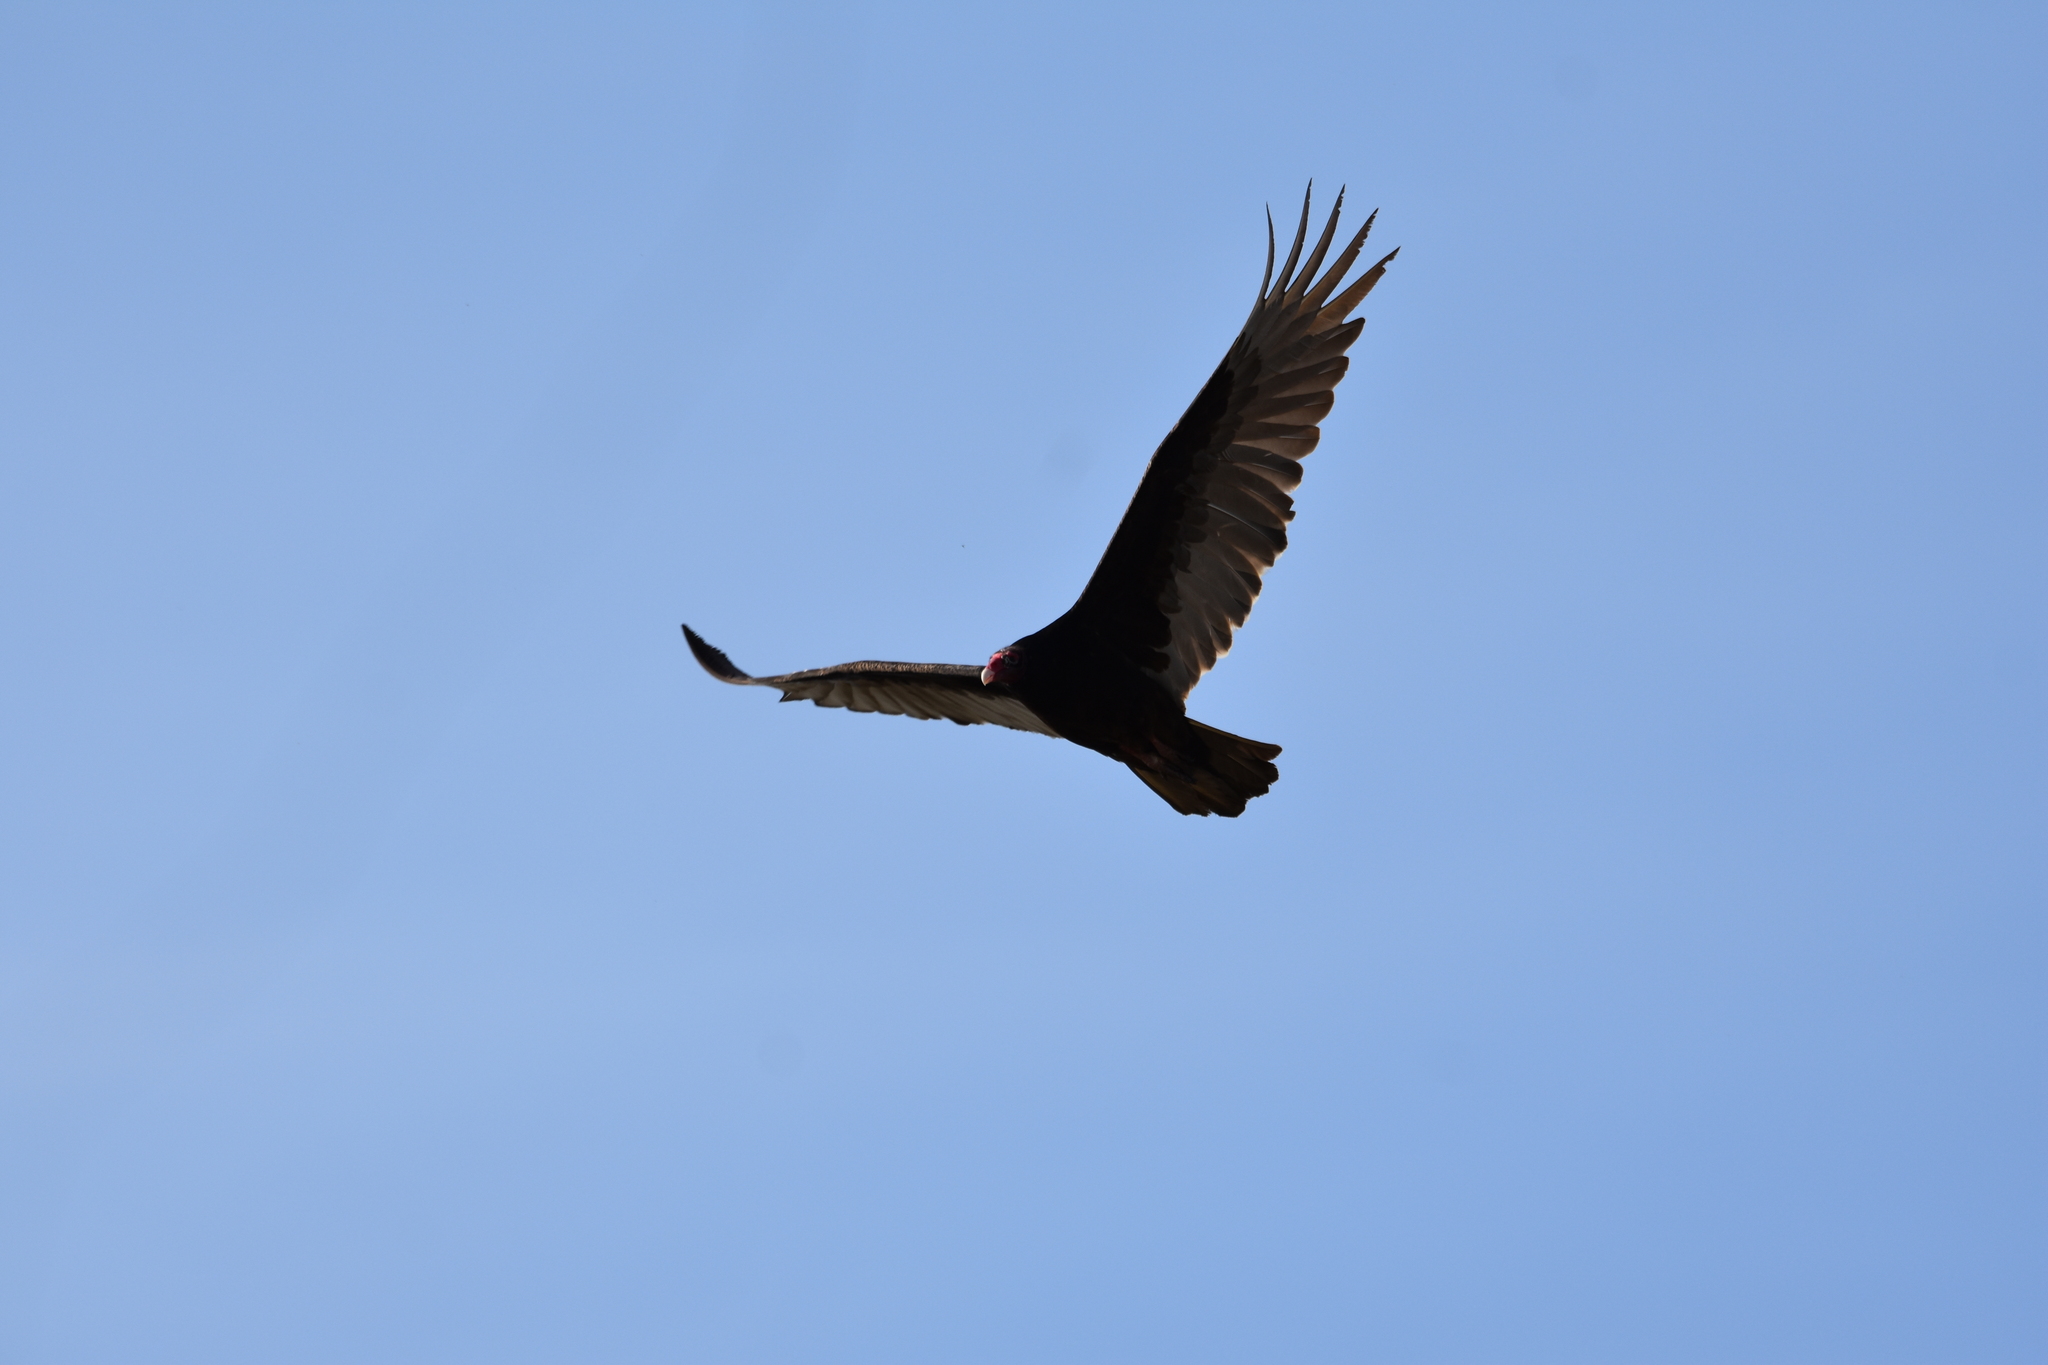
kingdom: Animalia
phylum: Chordata
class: Aves
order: Accipitriformes
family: Cathartidae
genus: Cathartes
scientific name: Cathartes aura
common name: Turkey vulture
